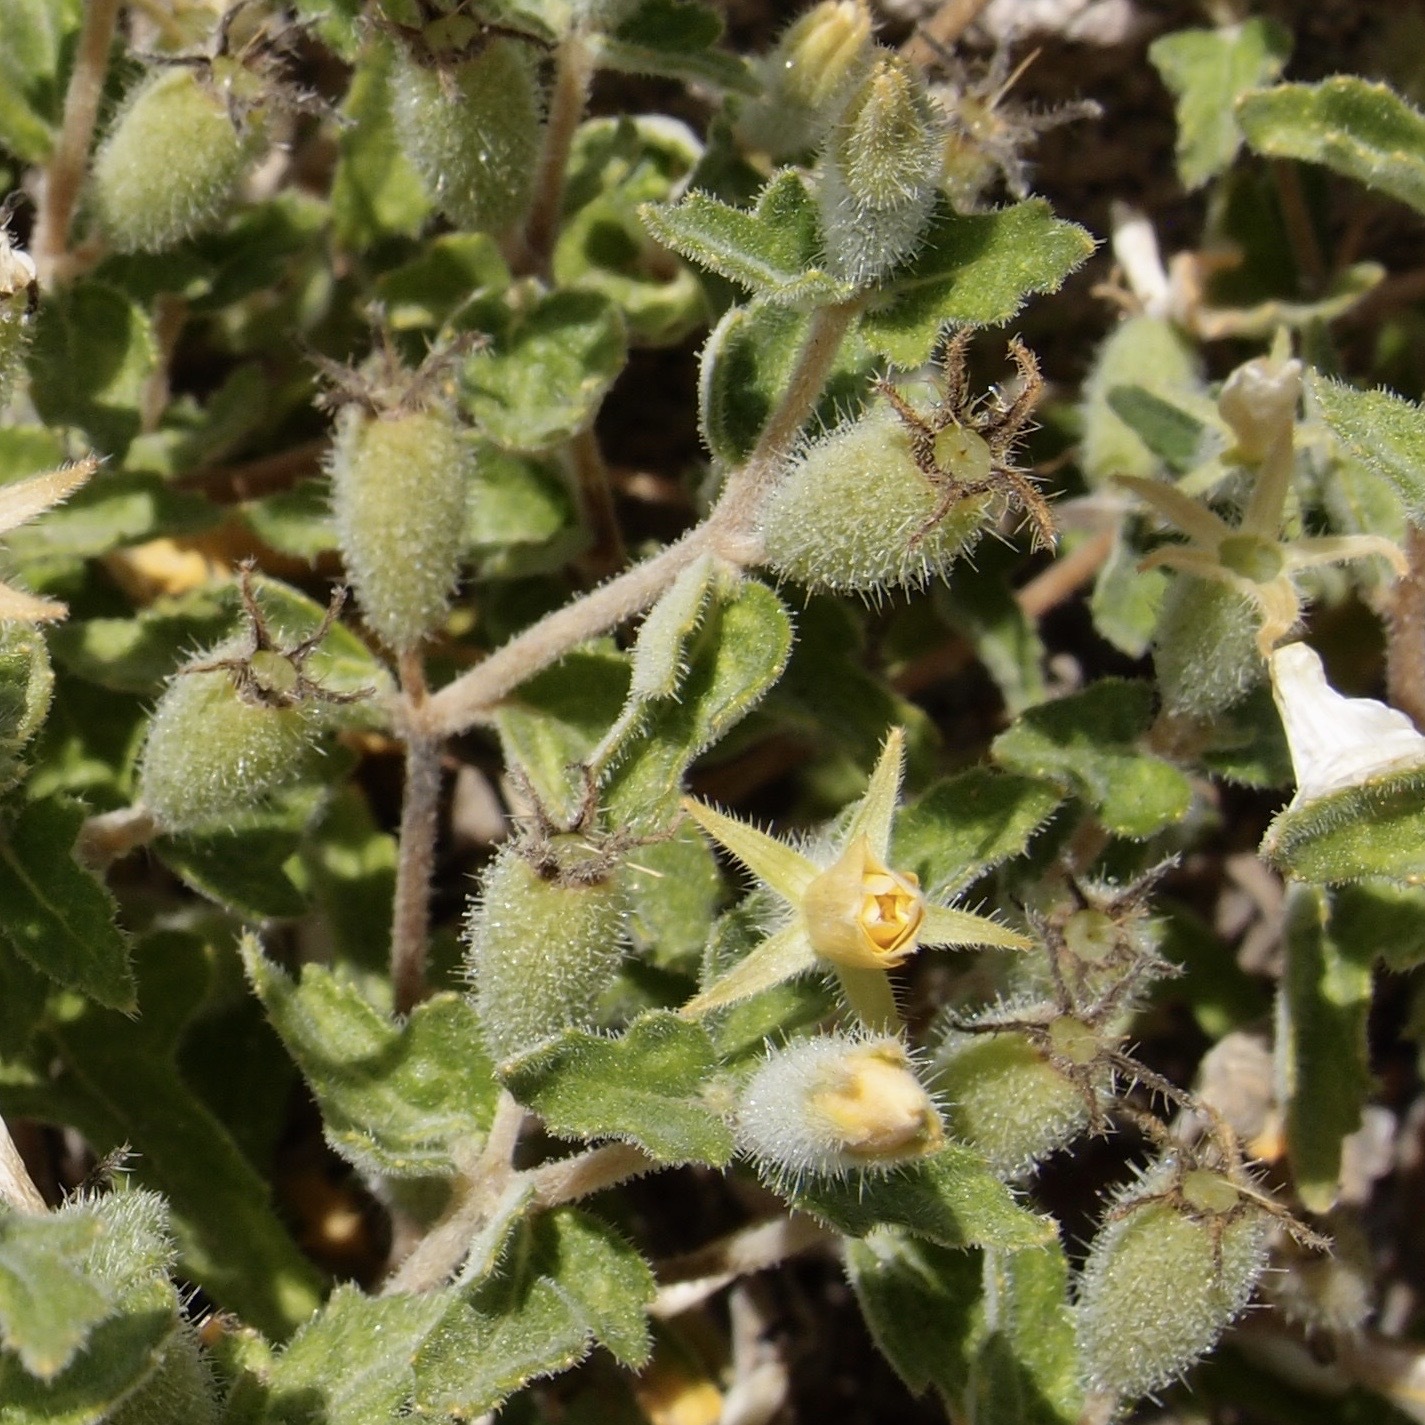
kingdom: Plantae
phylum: Tracheophyta
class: Magnoliopsida
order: Cornales
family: Loasaceae
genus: Mentzelia
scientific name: Mentzelia adhaerens
